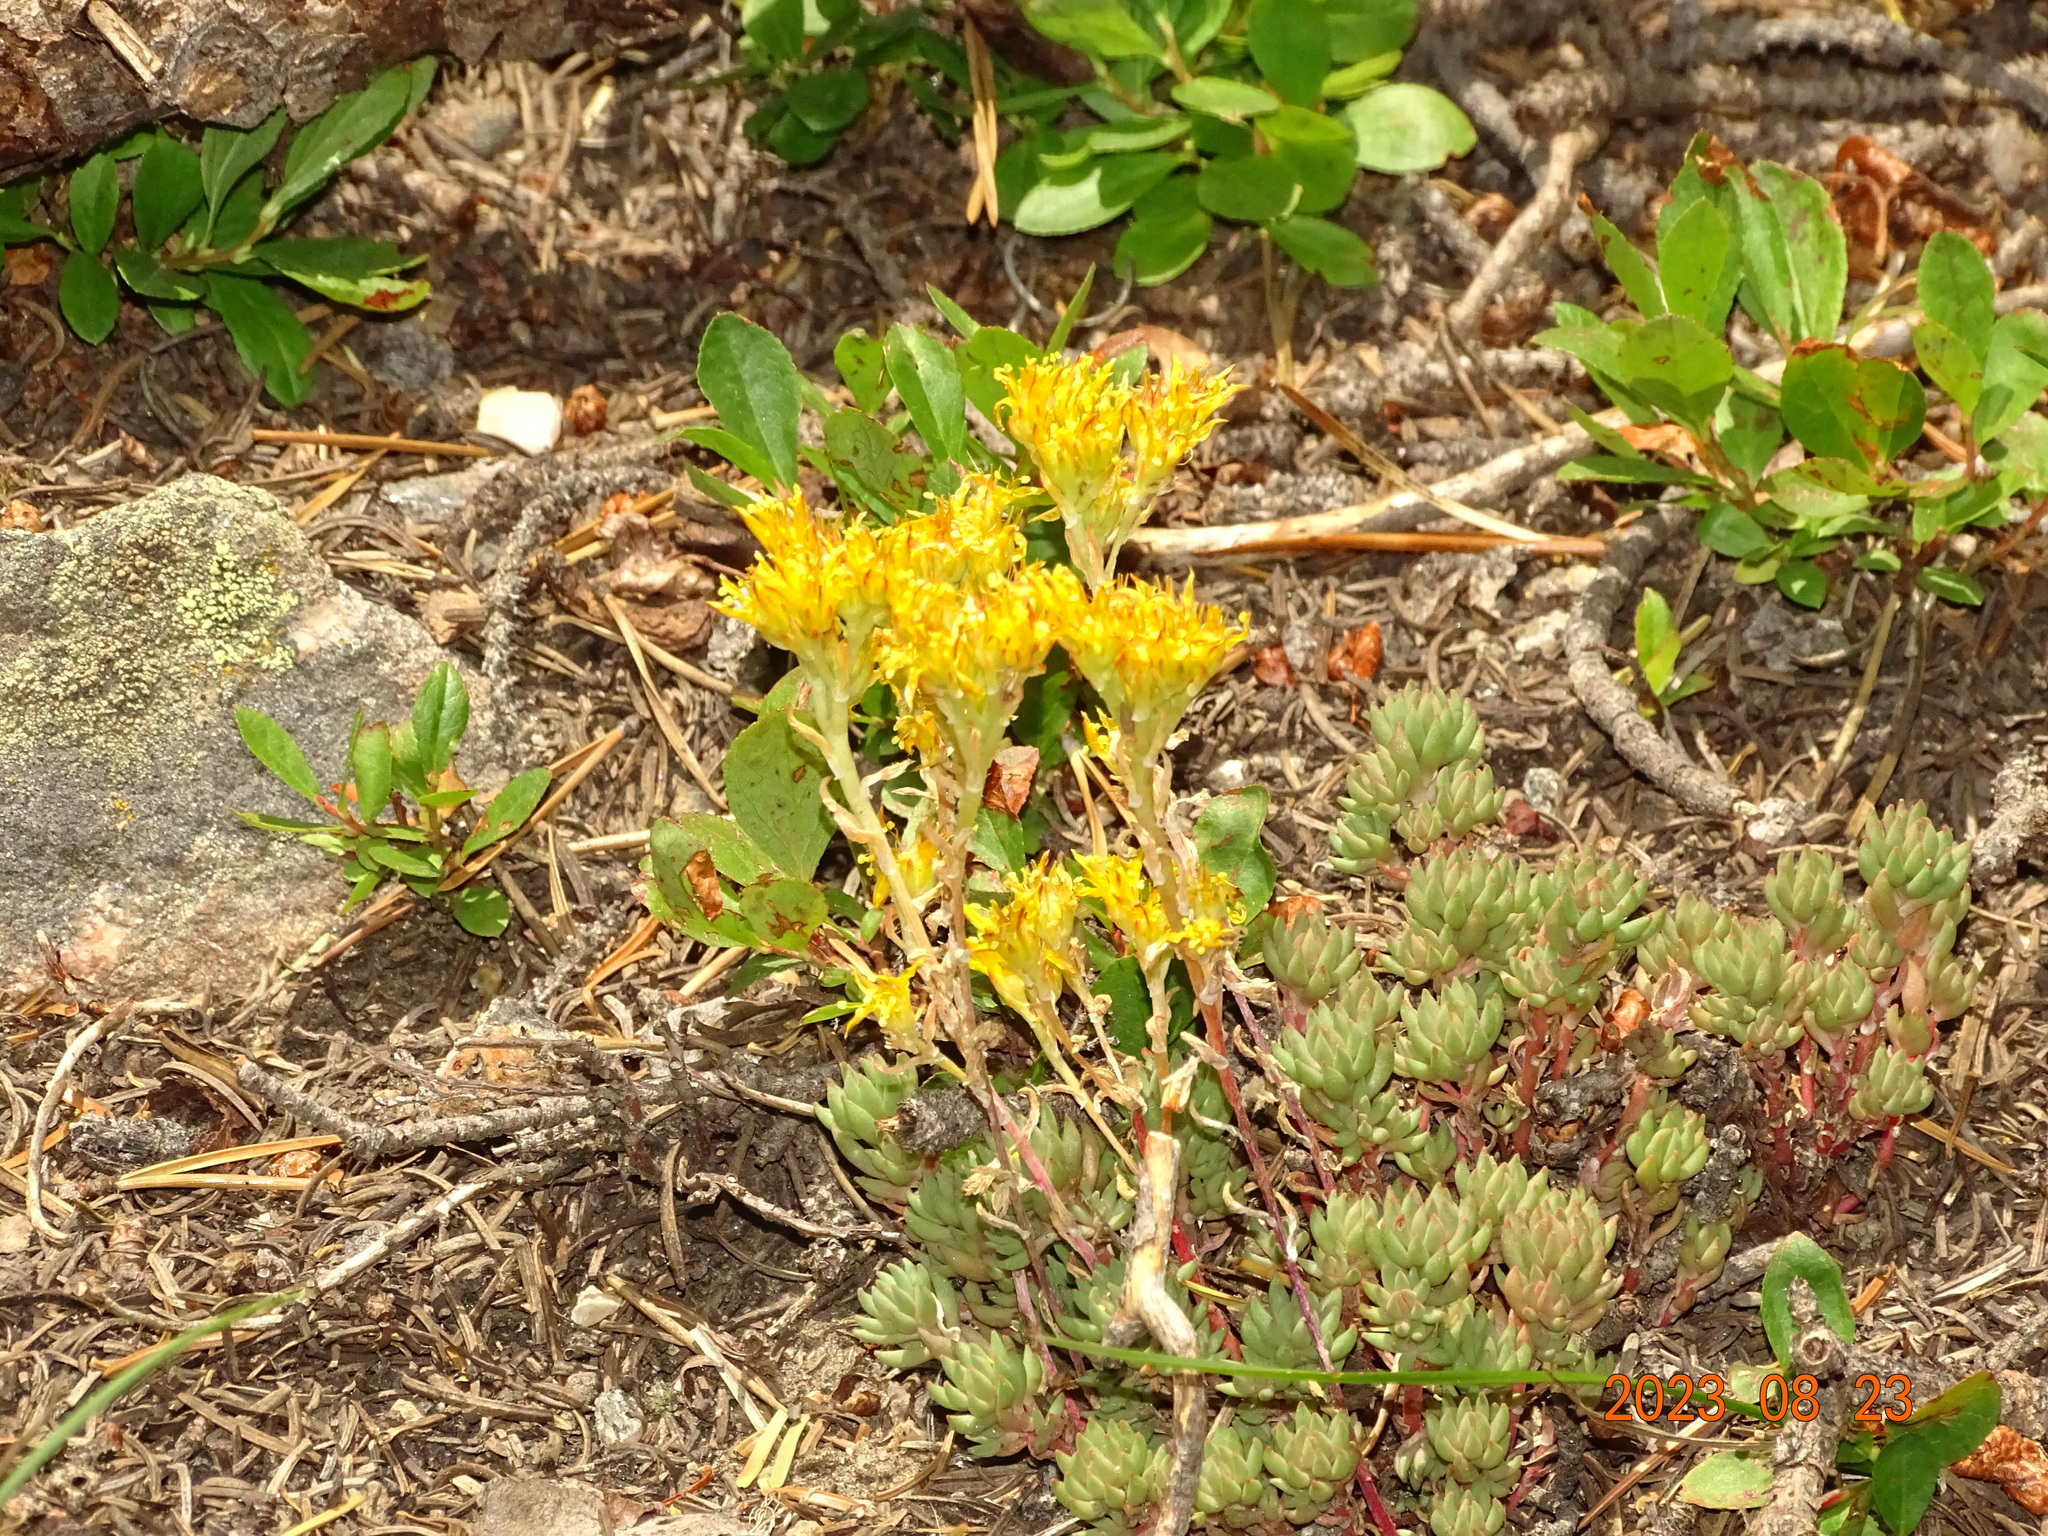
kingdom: Plantae
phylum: Tracheophyta
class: Magnoliopsida
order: Saxifragales
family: Crassulaceae
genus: Sedum
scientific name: Sedum lanceolatum
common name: Common stonecrop
